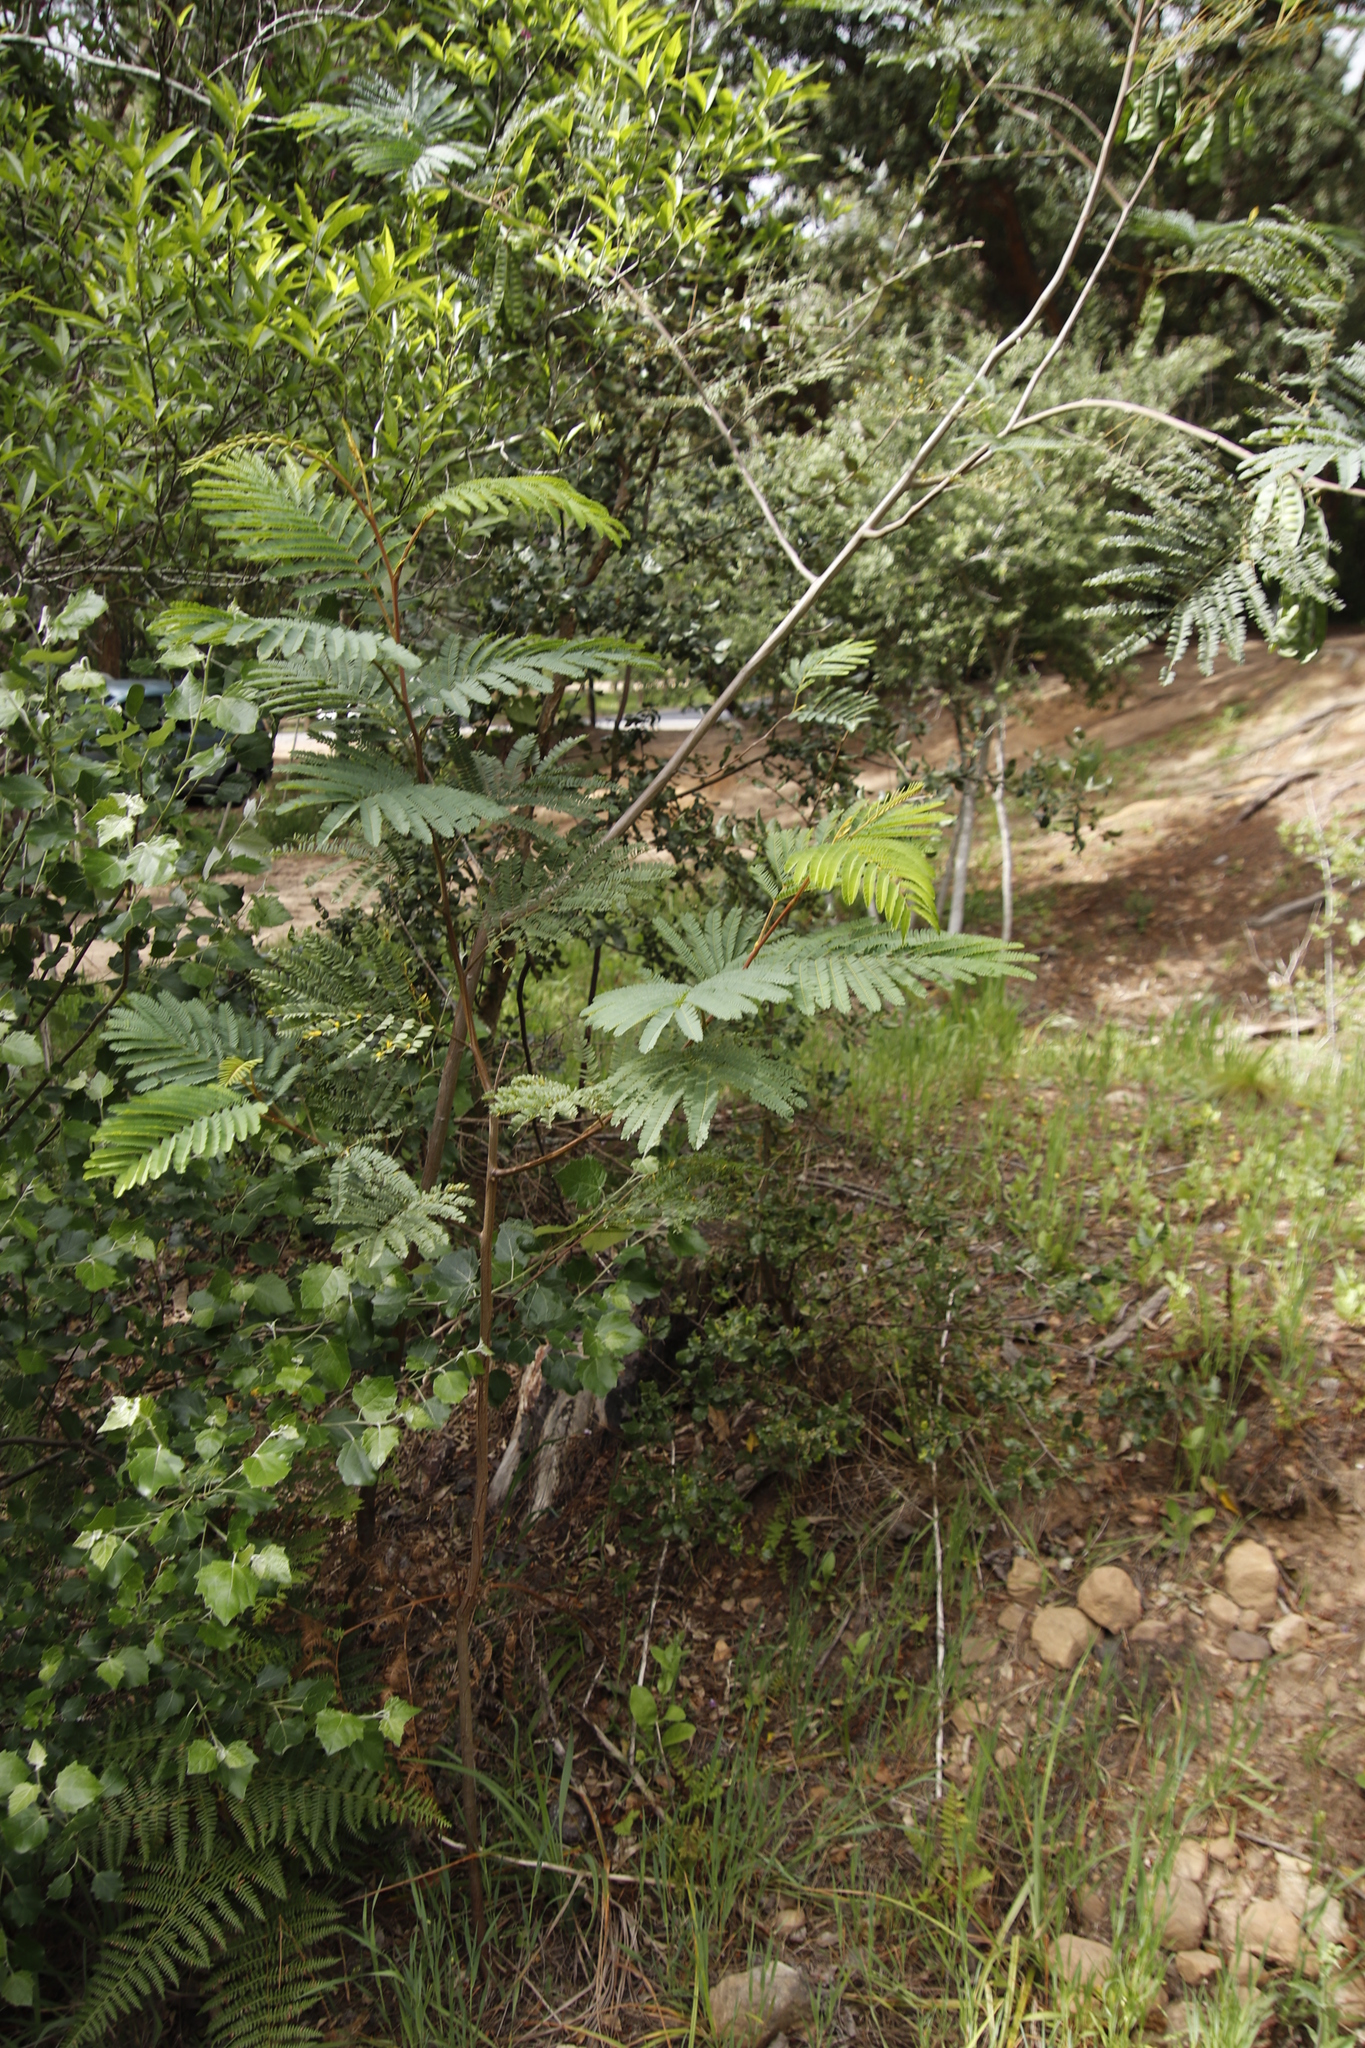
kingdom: Plantae
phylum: Tracheophyta
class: Magnoliopsida
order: Fabales
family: Fabaceae
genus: Paraserianthes
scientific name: Paraserianthes lophantha
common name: Plume albizia
